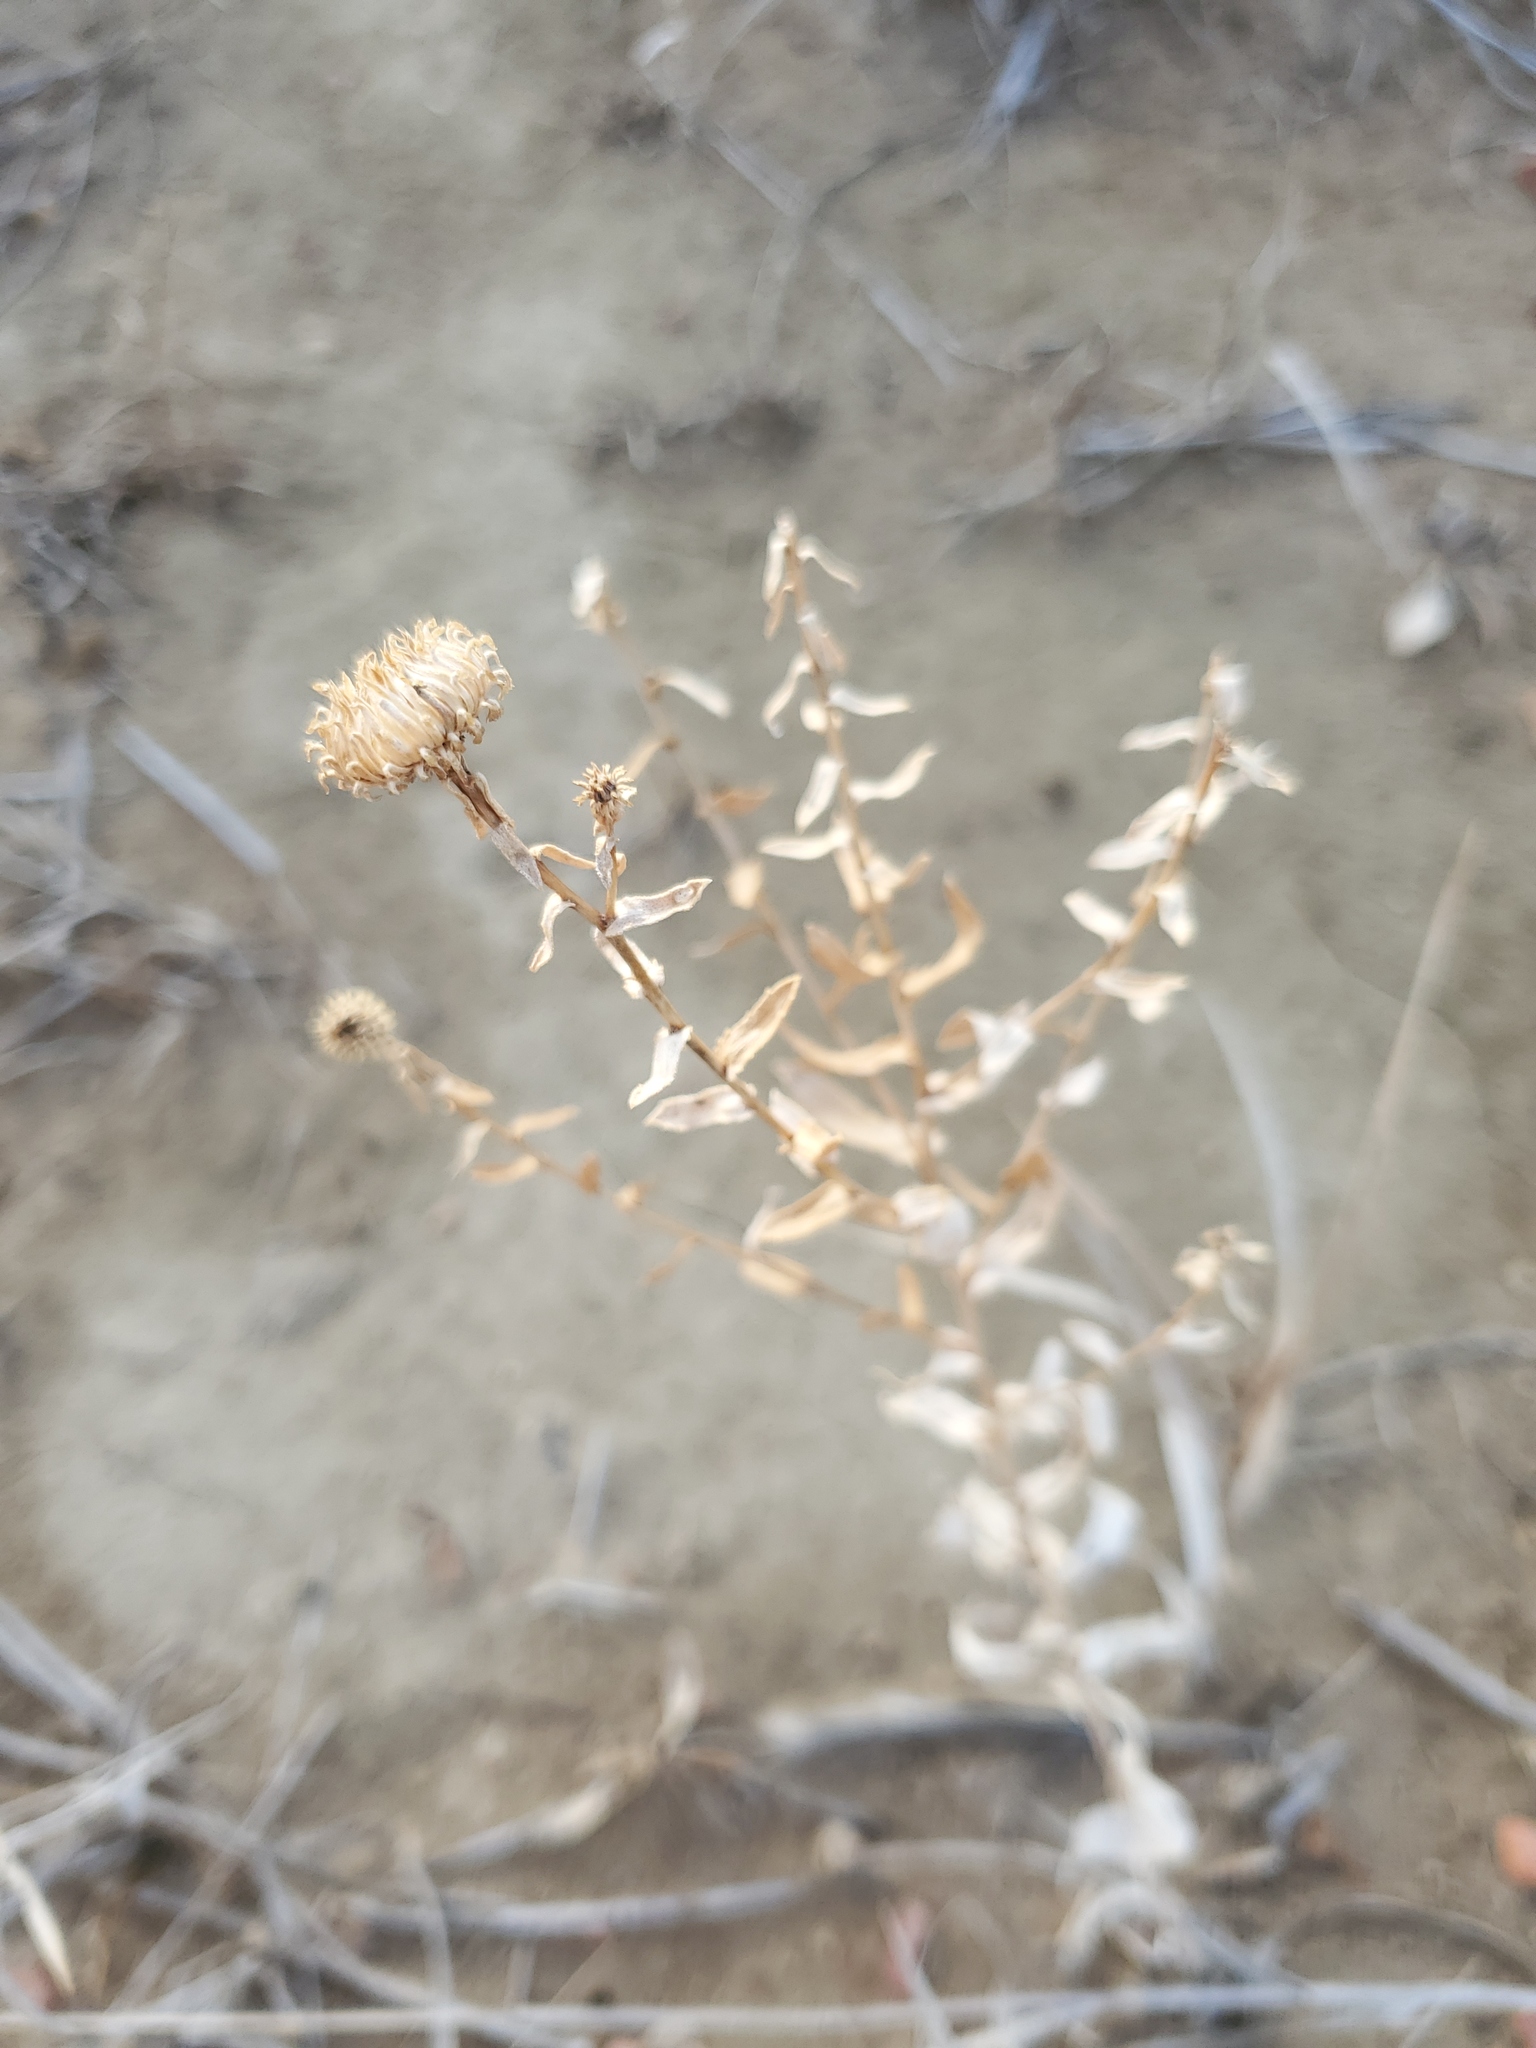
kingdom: Plantae
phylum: Tracheophyta
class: Magnoliopsida
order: Asterales
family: Asteraceae
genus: Grindelia
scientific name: Grindelia squarrosa
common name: Curly-cup gumweed
